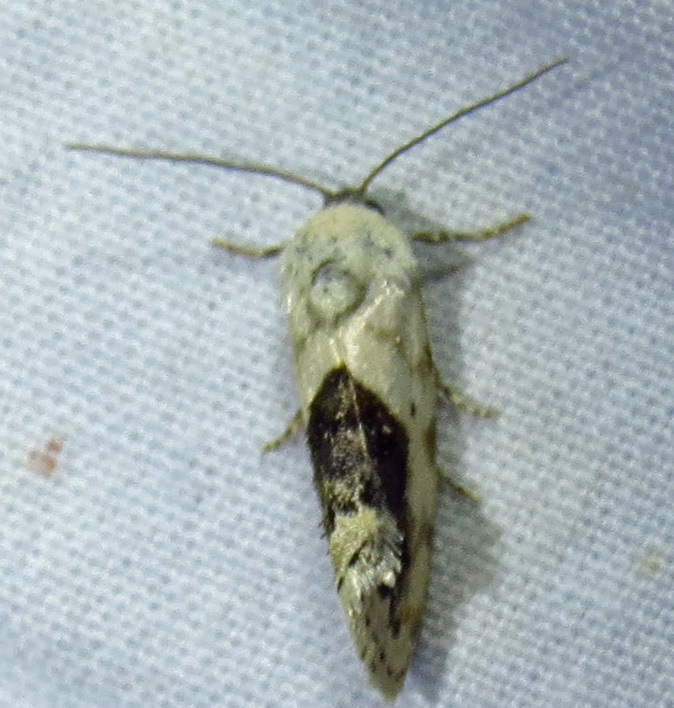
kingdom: Animalia
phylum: Arthropoda
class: Insecta
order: Lepidoptera
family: Noctuidae
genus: Acontia
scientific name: Acontia aprica
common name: Nun
